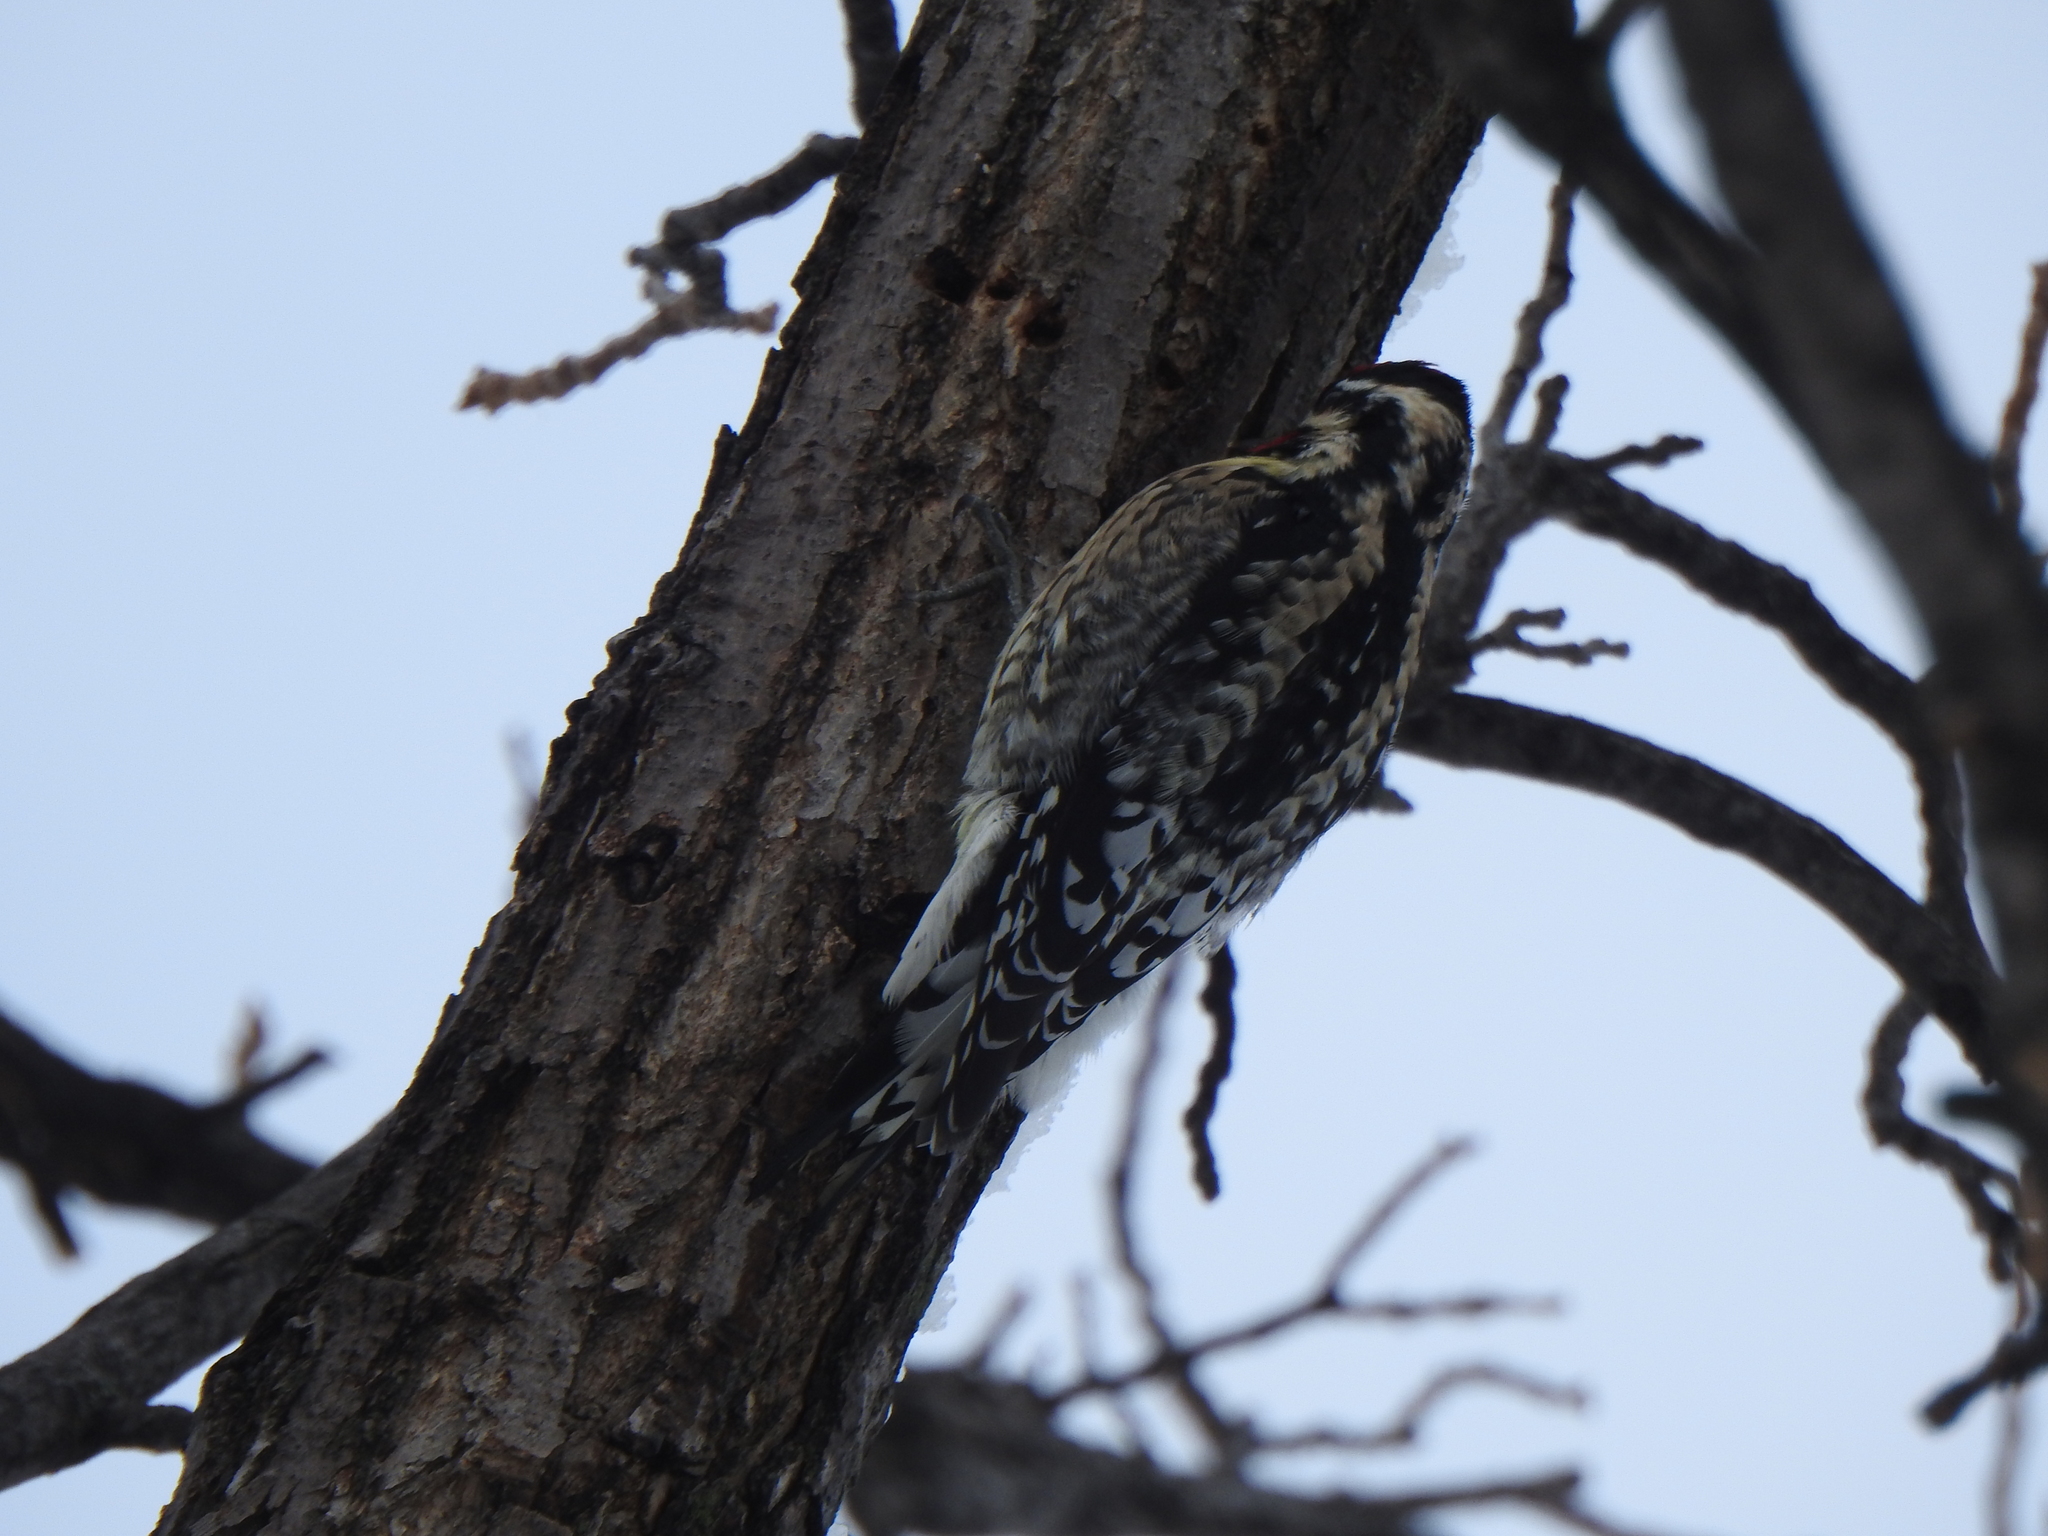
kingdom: Animalia
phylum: Chordata
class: Aves
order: Piciformes
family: Picidae
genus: Sphyrapicus
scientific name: Sphyrapicus varius
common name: Yellow-bellied sapsucker
